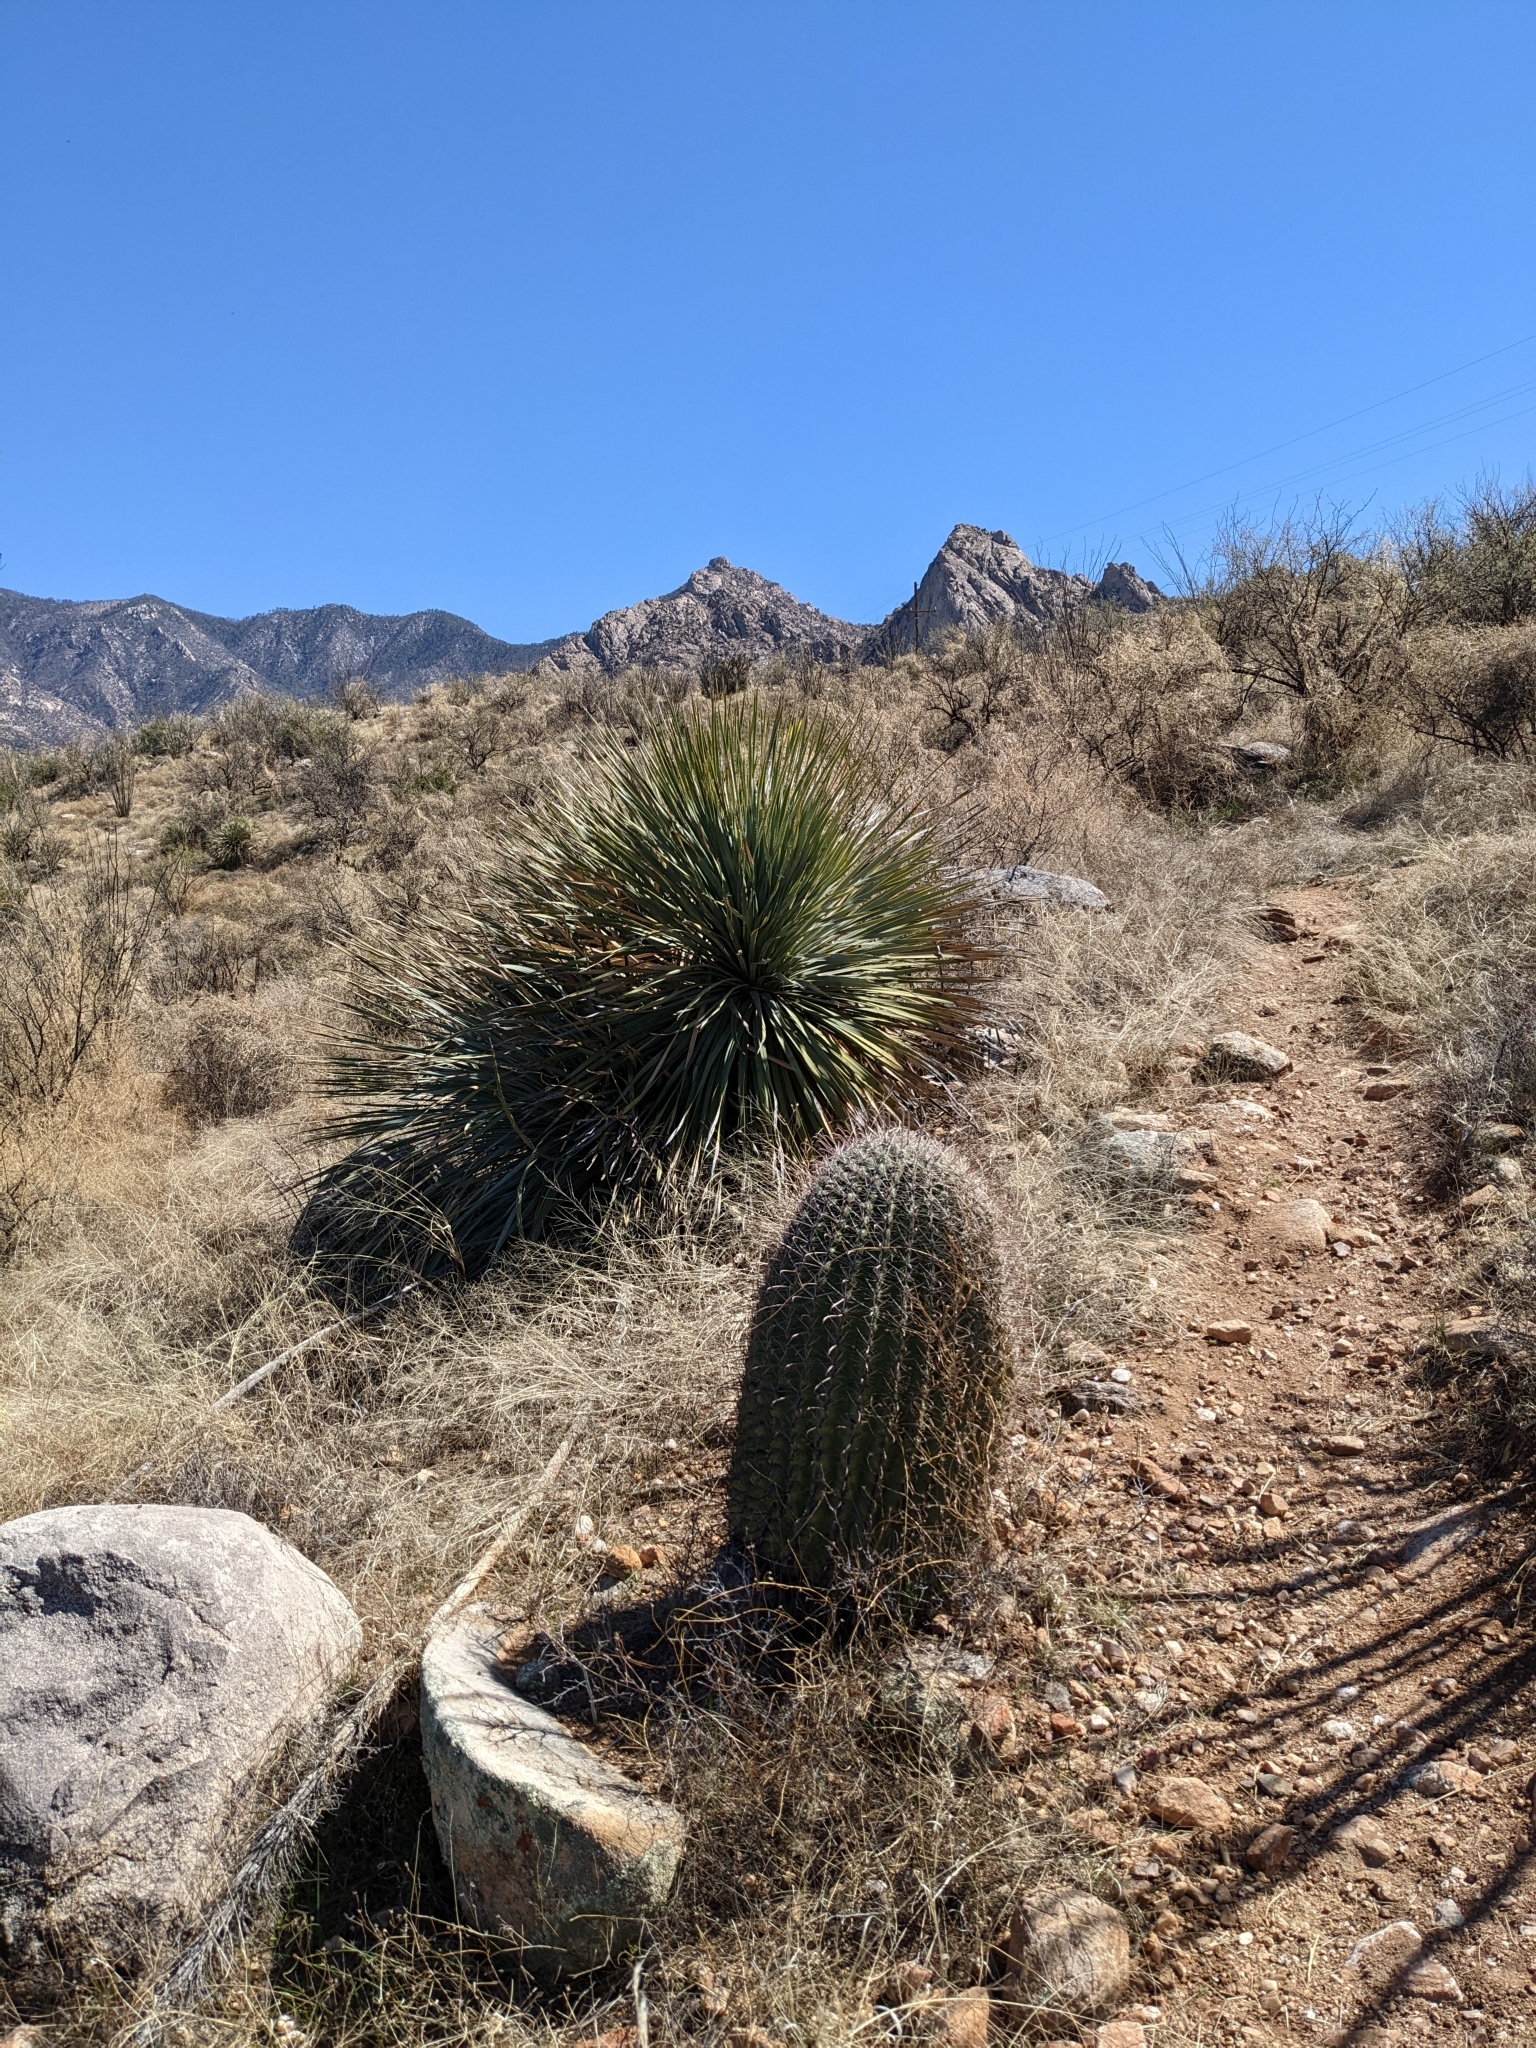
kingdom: Plantae
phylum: Tracheophyta
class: Magnoliopsida
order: Caryophyllales
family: Cactaceae
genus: Ferocactus
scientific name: Ferocactus wislizeni
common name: Candy barrel cactus
